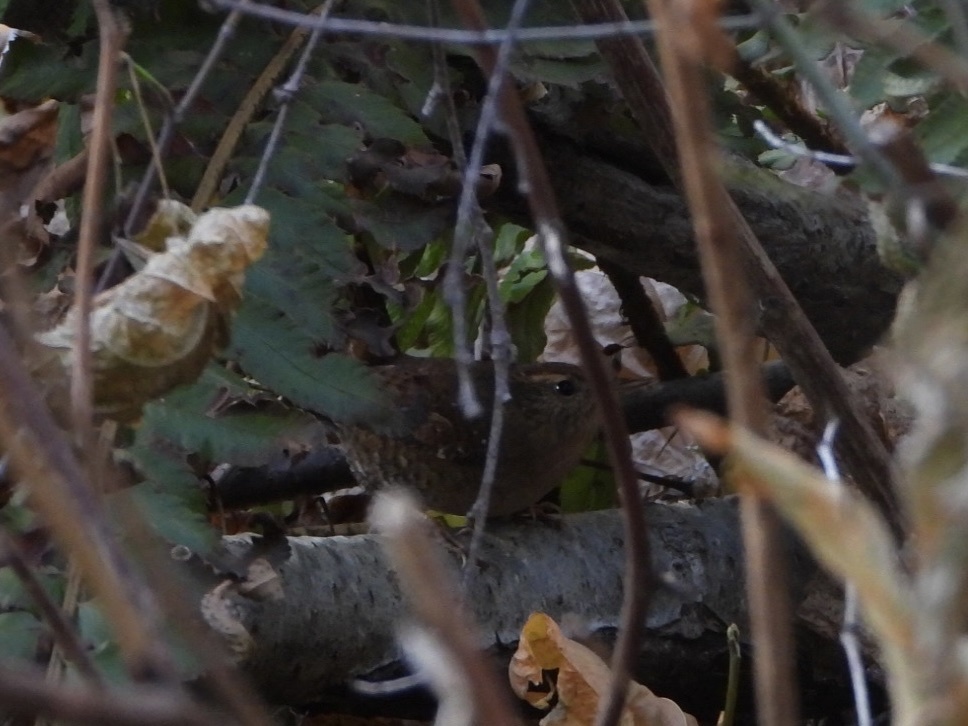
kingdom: Animalia
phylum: Chordata
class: Aves
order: Passeriformes
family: Troglodytidae
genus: Troglodytes
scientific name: Troglodytes pacificus
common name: Pacific wren
